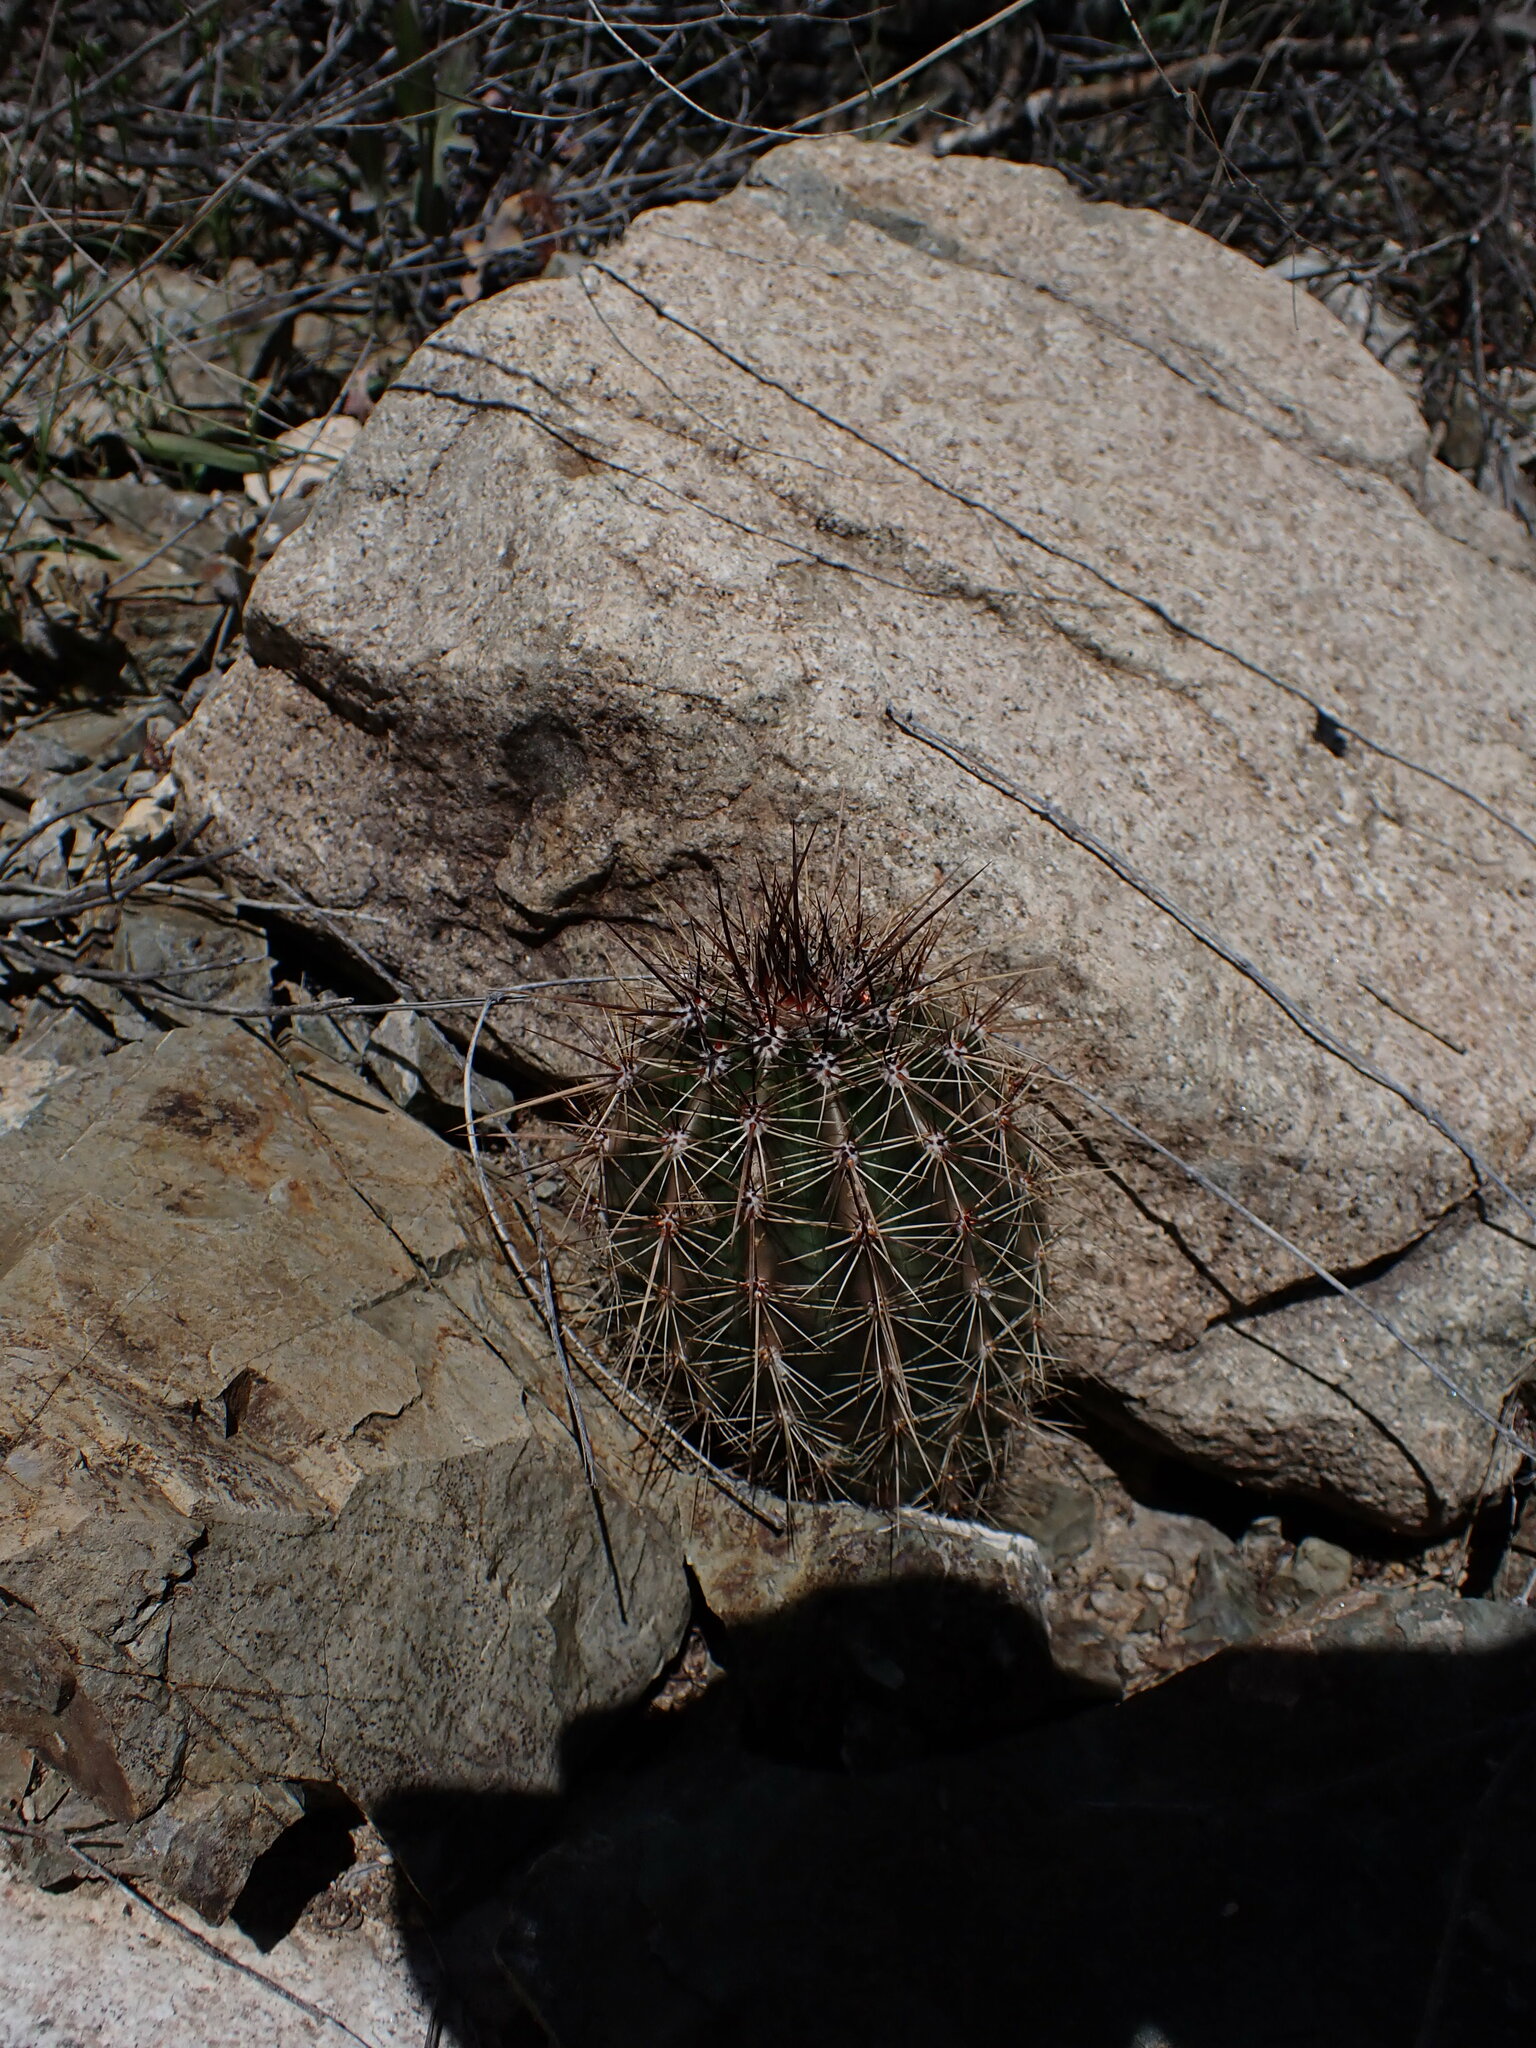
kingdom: Plantae
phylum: Tracheophyta
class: Magnoliopsida
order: Caryophyllales
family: Cactaceae
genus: Carnegiea
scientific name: Carnegiea gigantea
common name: Saguaro
